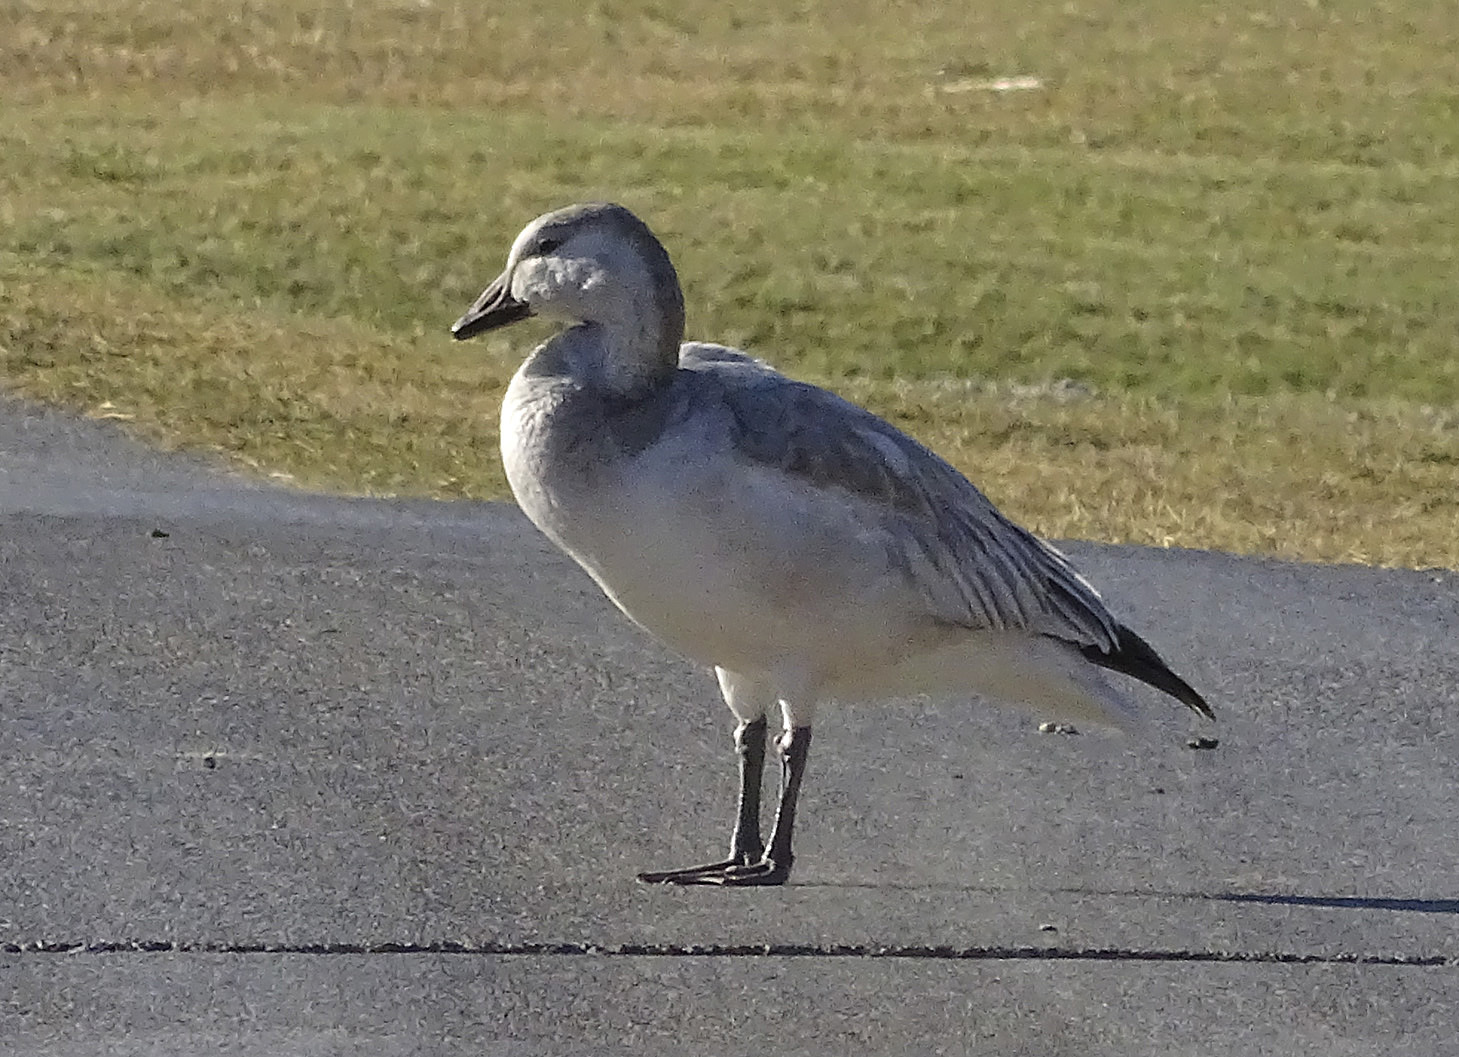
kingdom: Animalia
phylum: Chordata
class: Aves
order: Anseriformes
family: Anatidae
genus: Anser
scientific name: Anser caerulescens
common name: Snow goose
